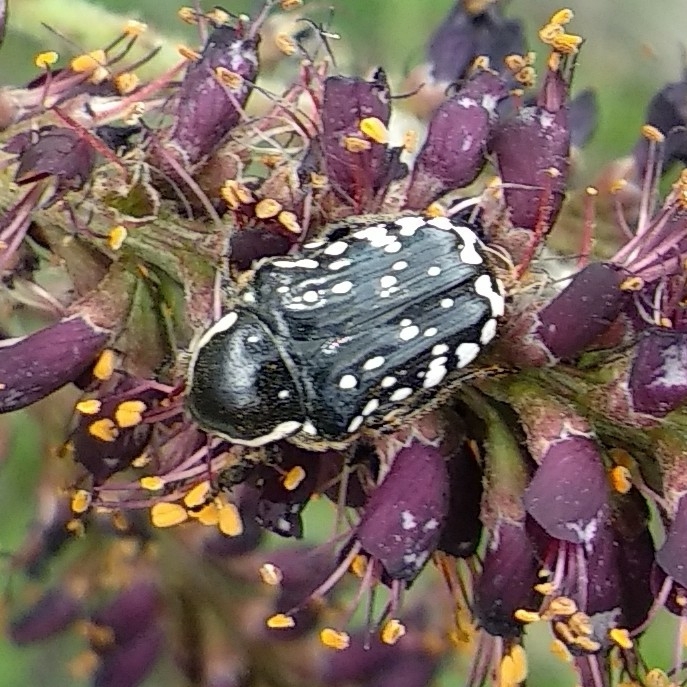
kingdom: Animalia
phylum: Arthropoda
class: Insecta
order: Coleoptera
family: Scarabaeidae
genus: Oxythyrea
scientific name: Oxythyrea cinctella
